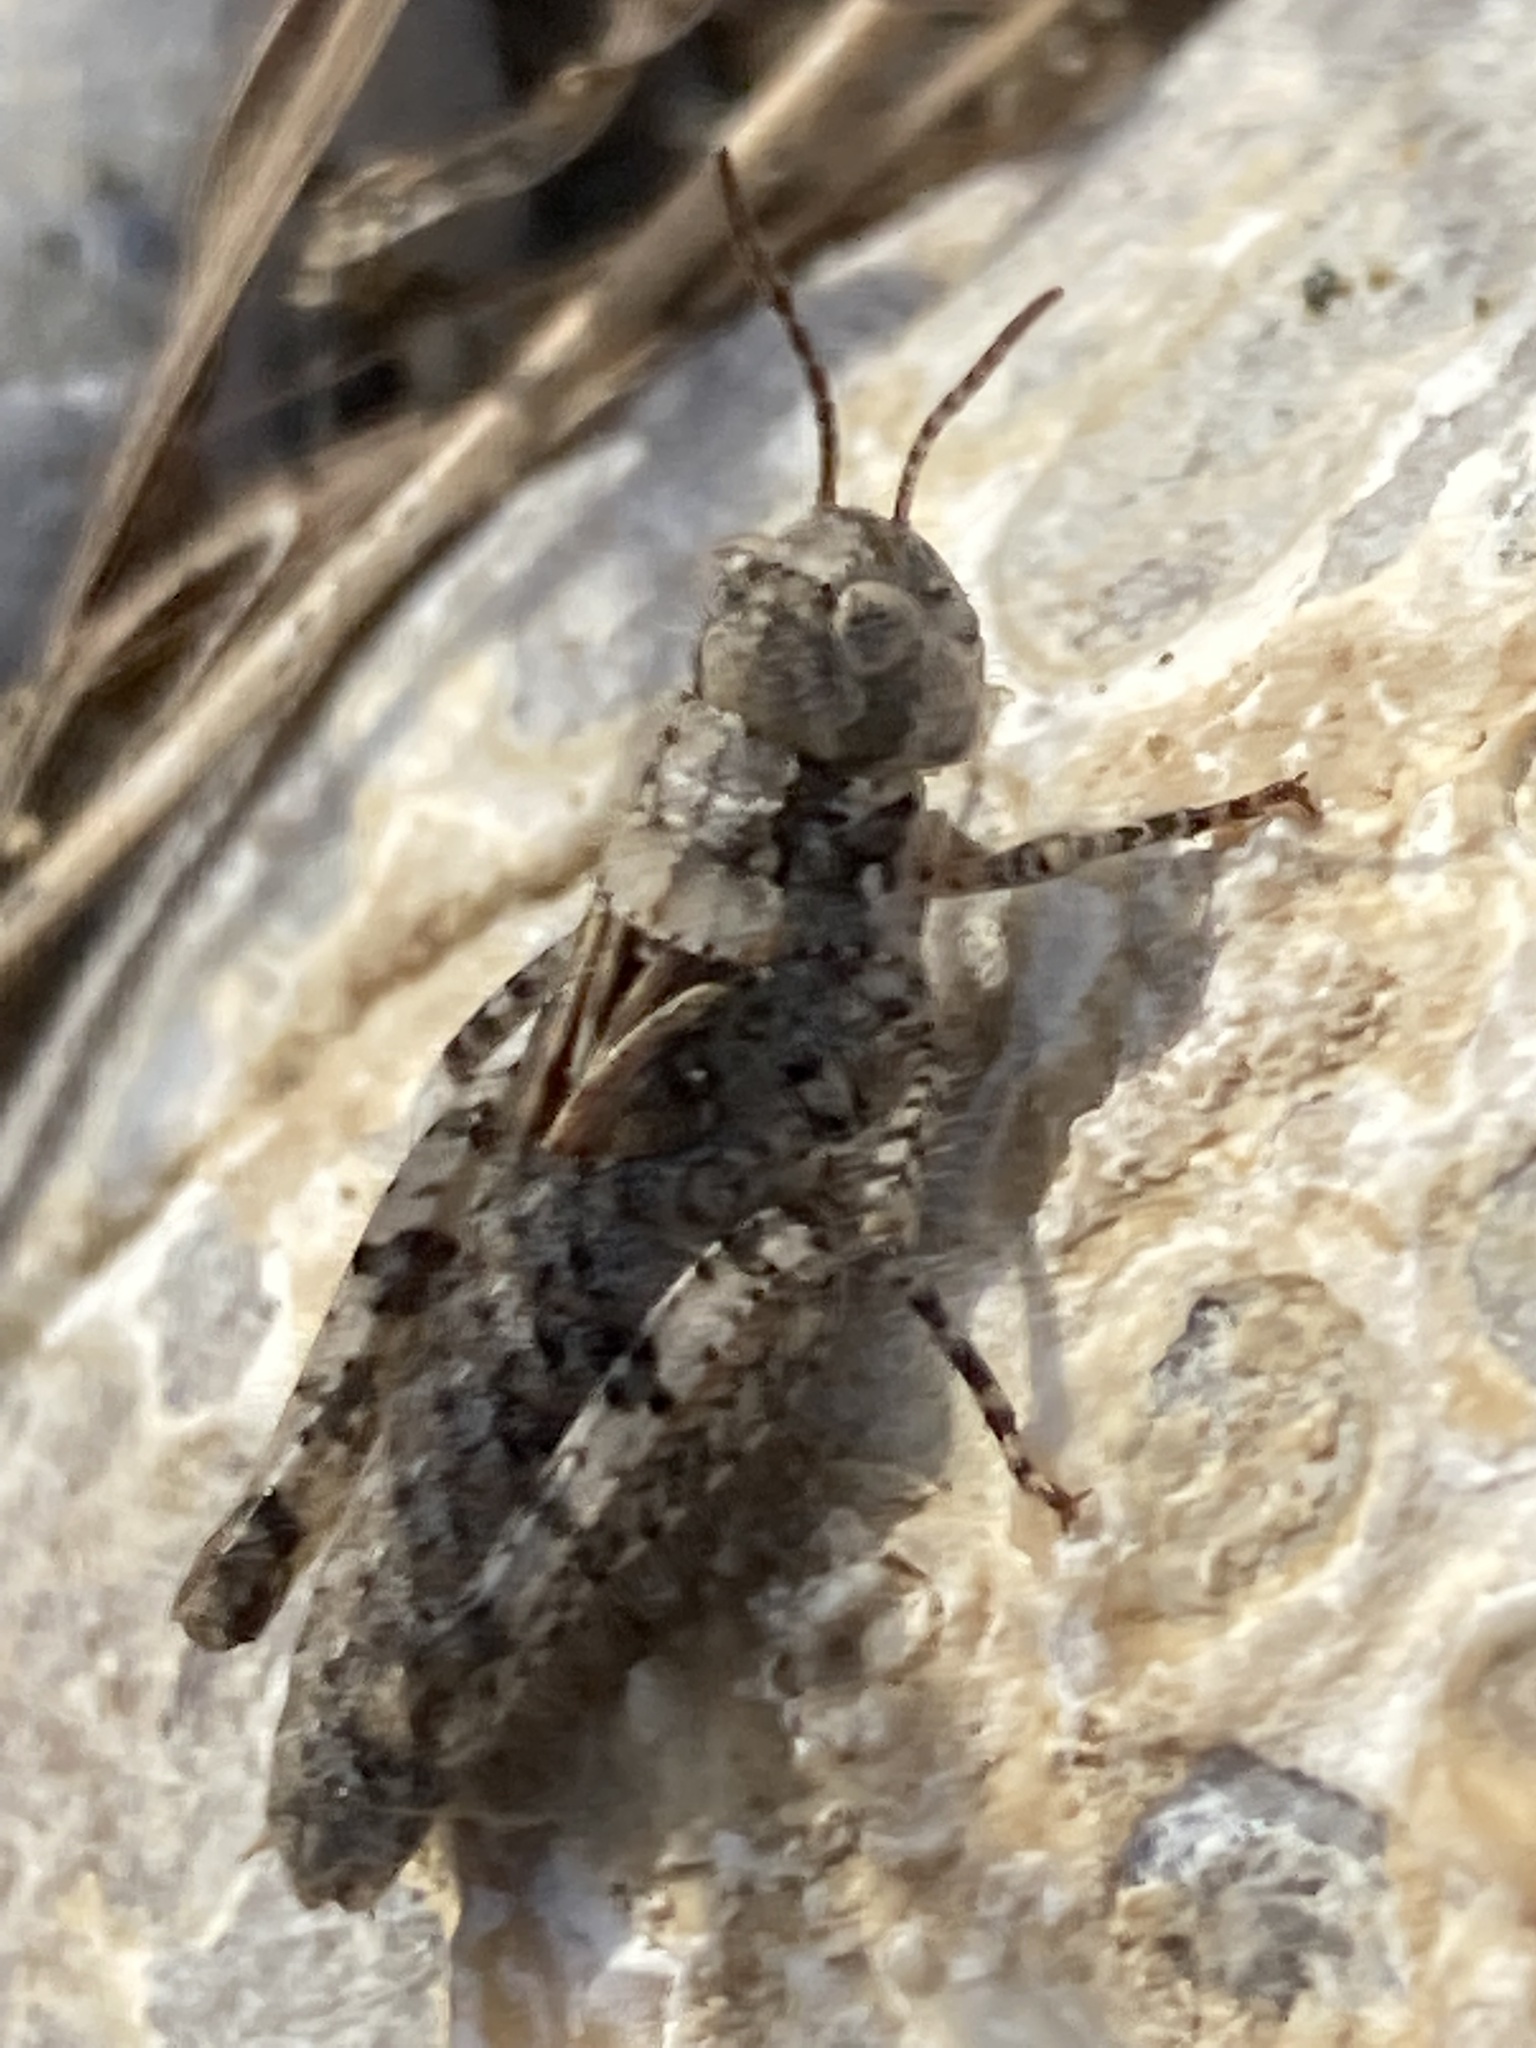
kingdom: Animalia
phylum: Arthropoda
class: Insecta
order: Orthoptera
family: Acrididae
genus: Acrotylus
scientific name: Acrotylus
